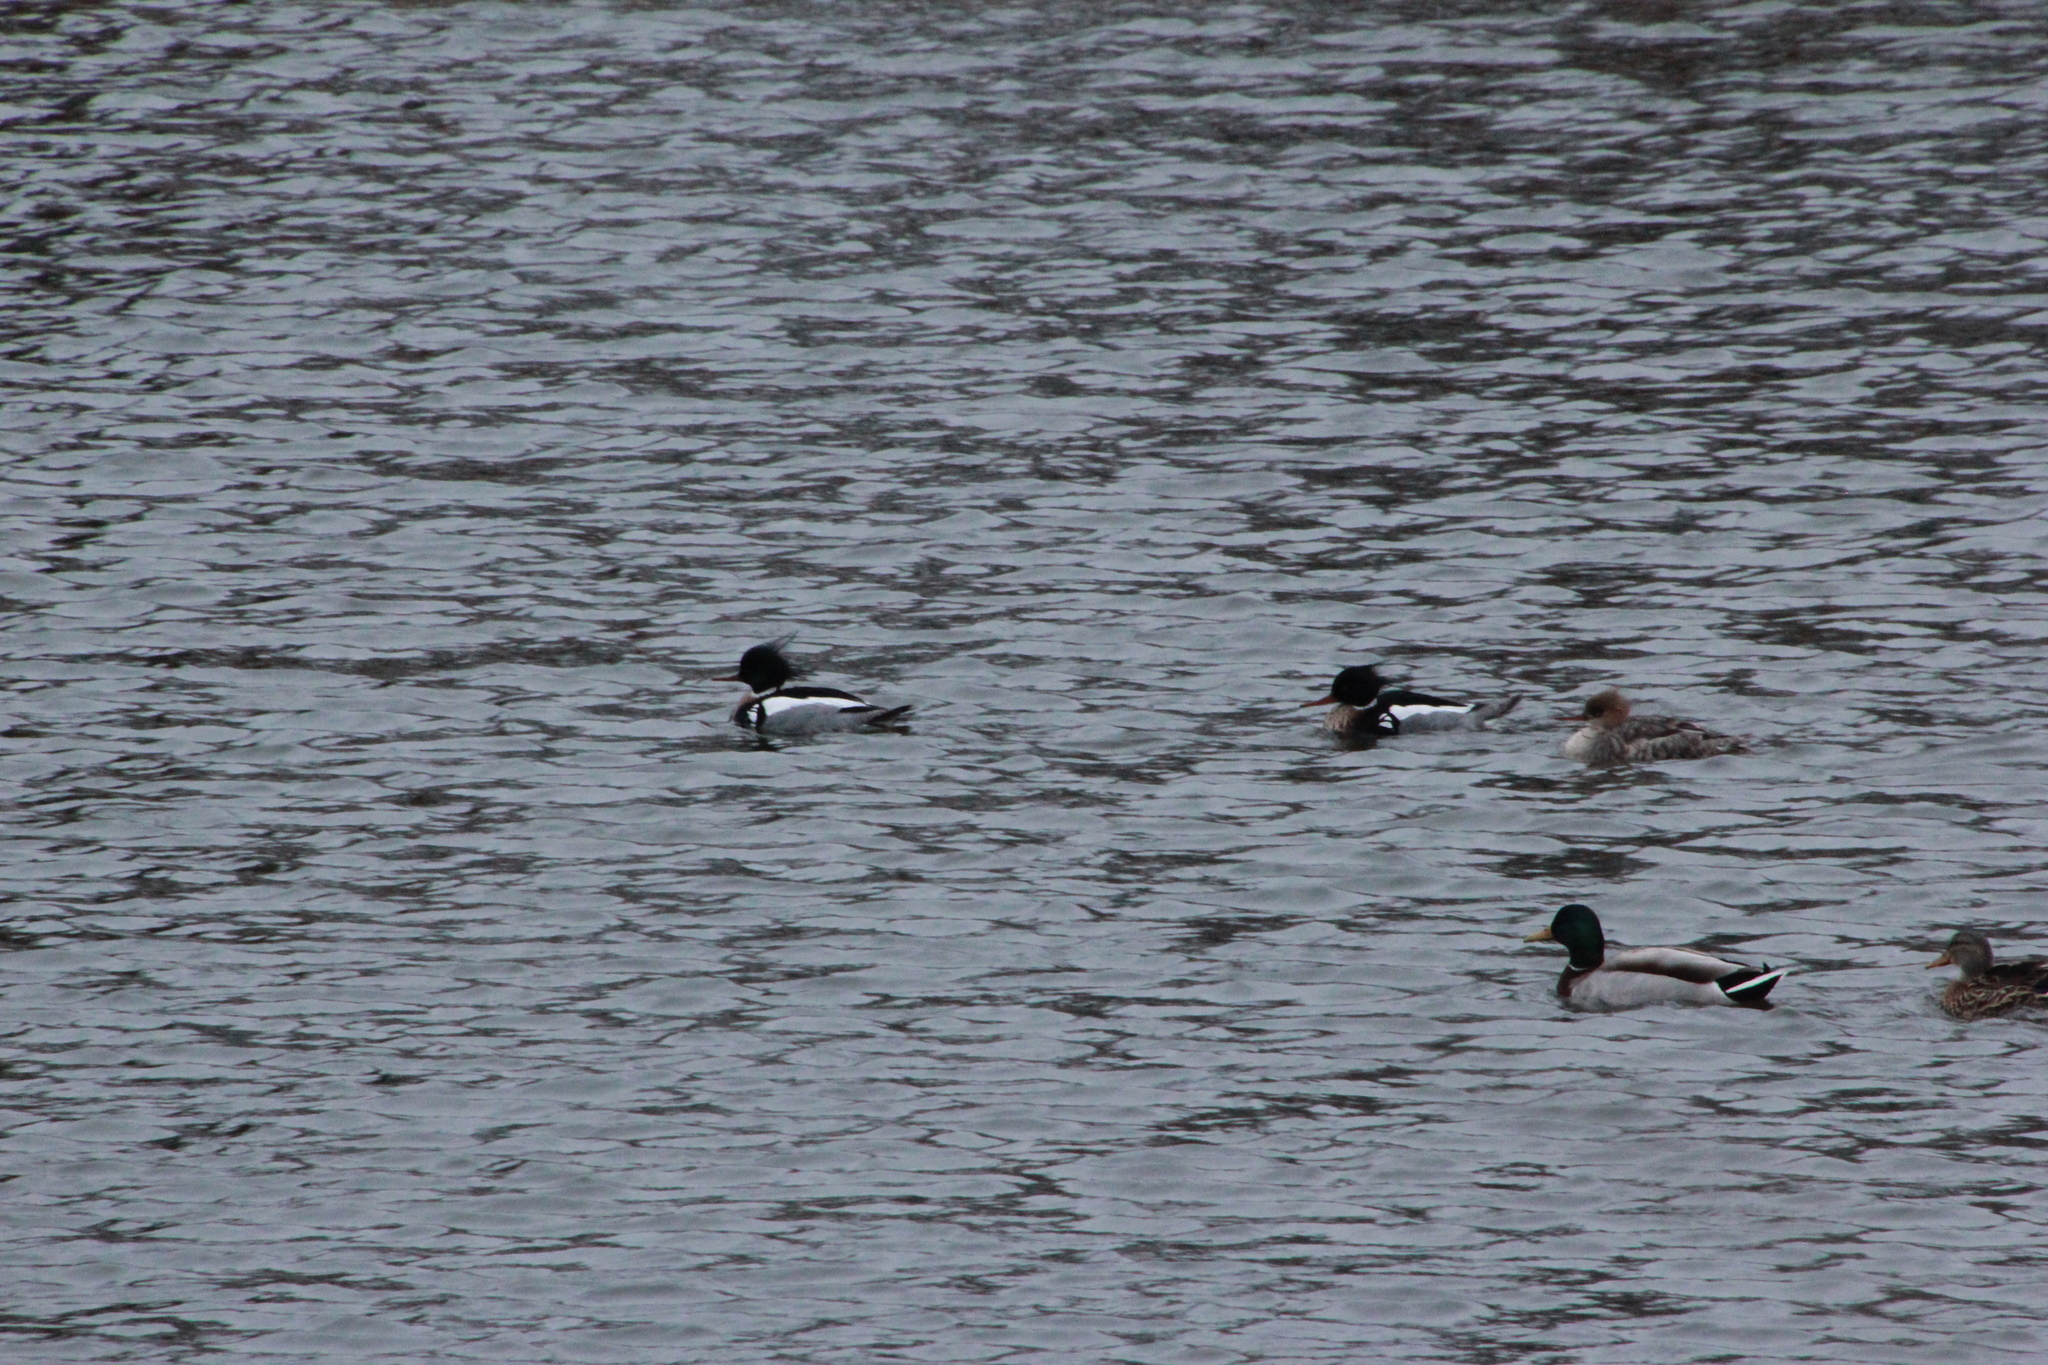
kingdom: Animalia
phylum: Chordata
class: Aves
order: Anseriformes
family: Anatidae
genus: Mergus
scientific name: Mergus serrator
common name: Red-breasted merganser
